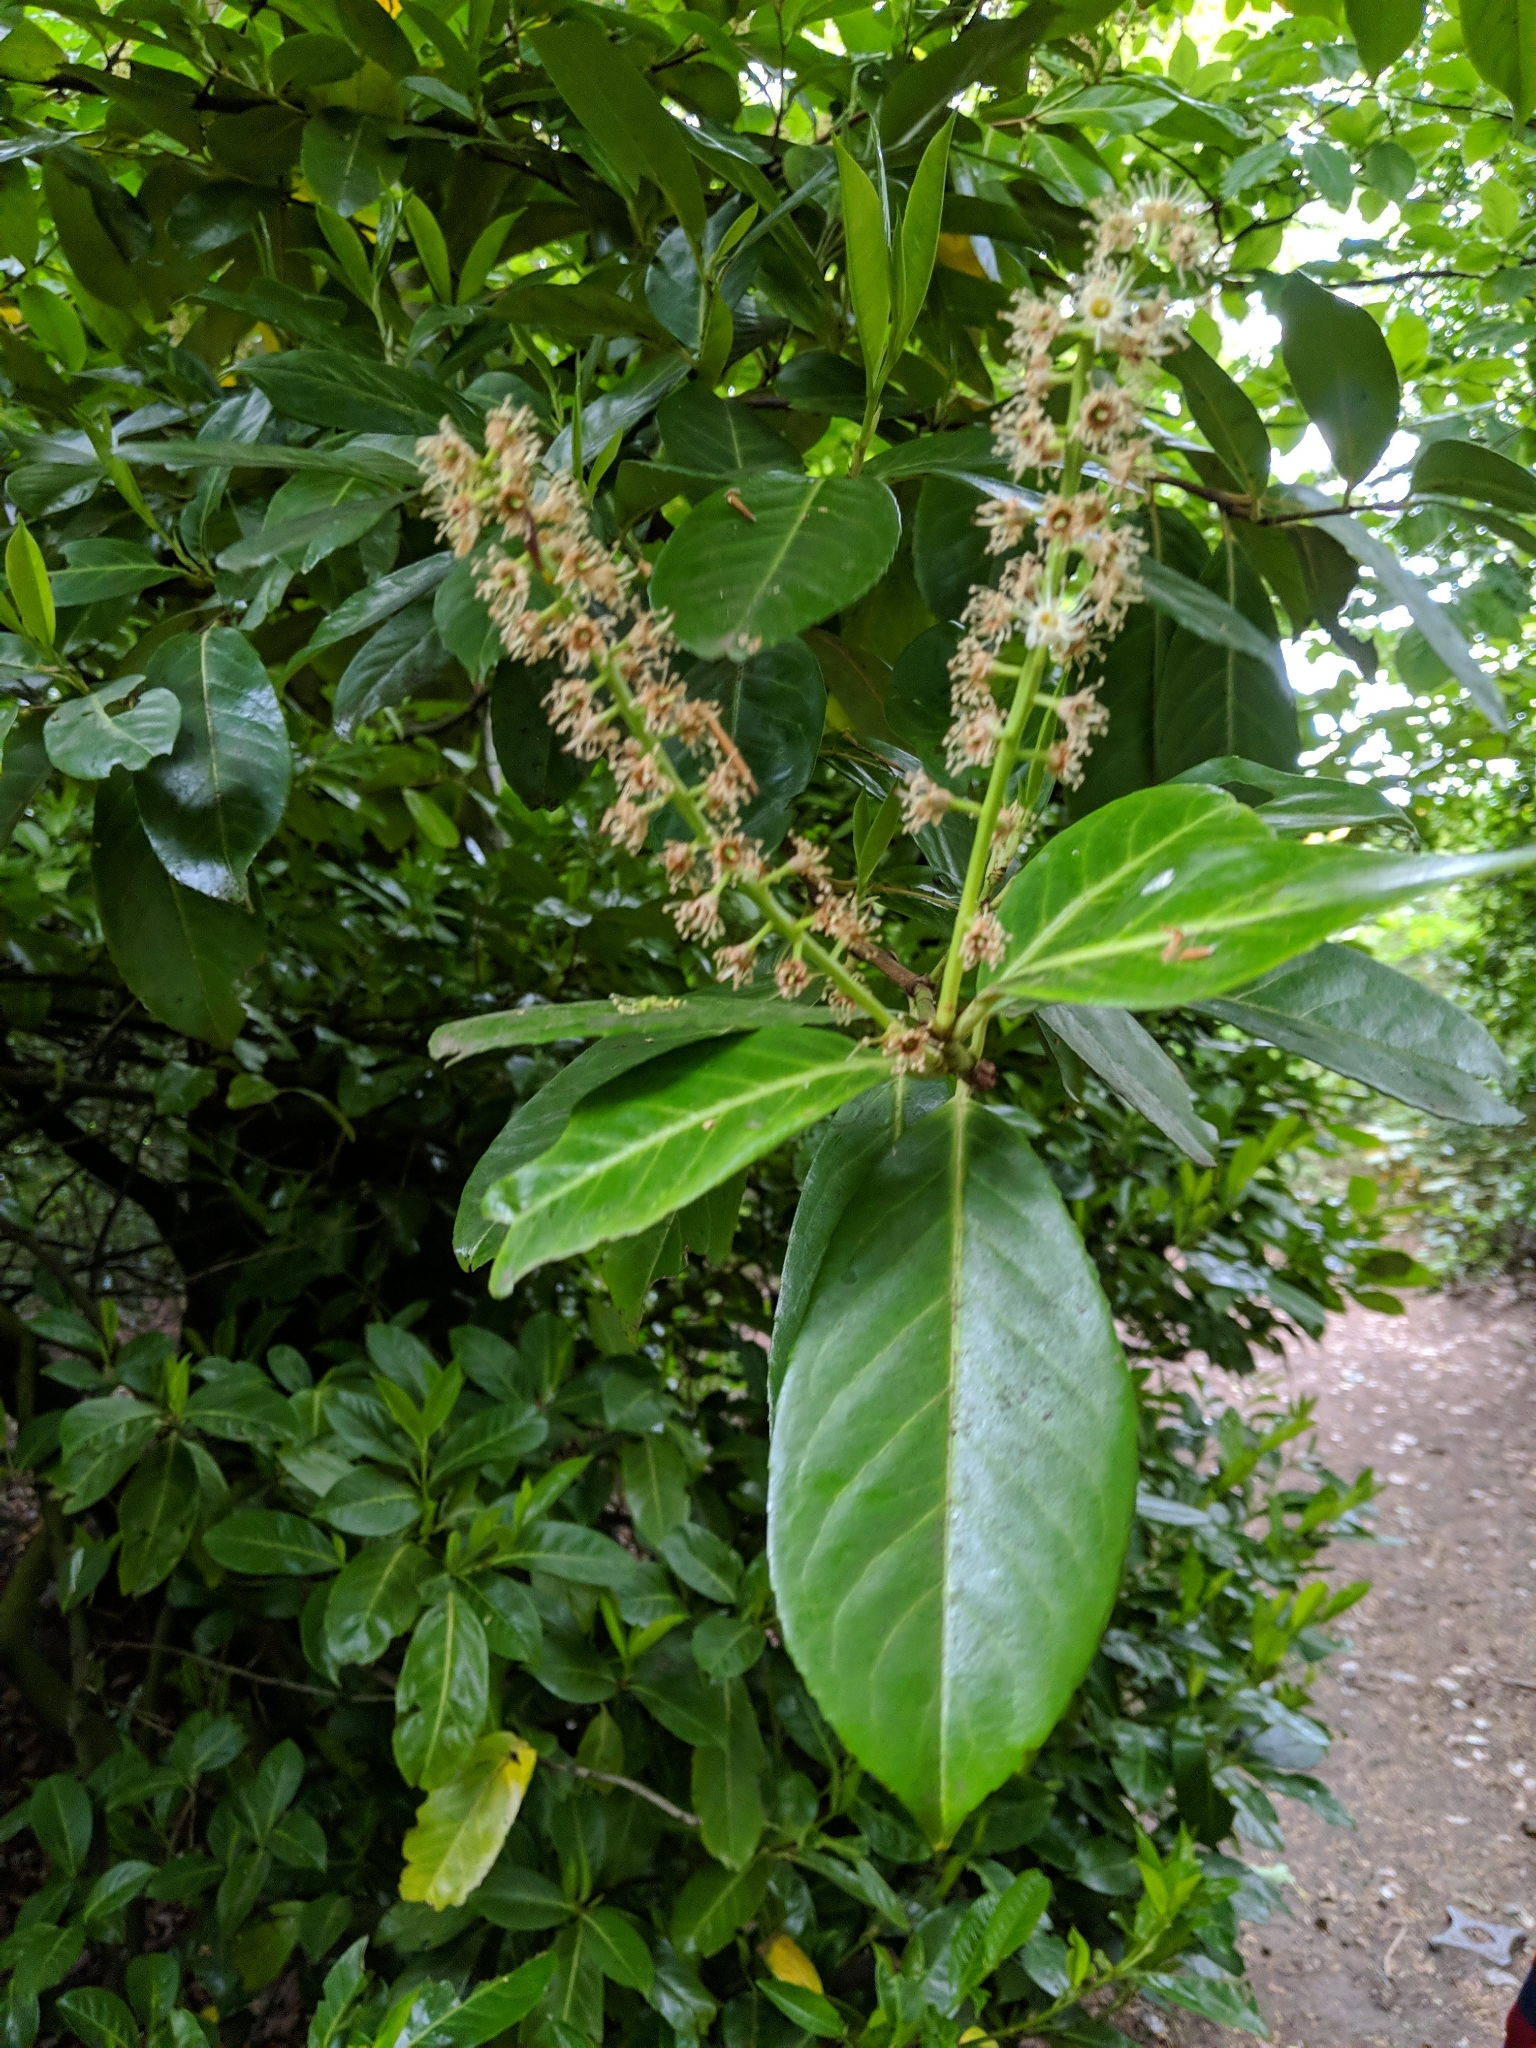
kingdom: Plantae
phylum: Tracheophyta
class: Magnoliopsida
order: Rosales
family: Rosaceae
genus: Prunus
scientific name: Prunus laurocerasus
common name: Cherry laurel
